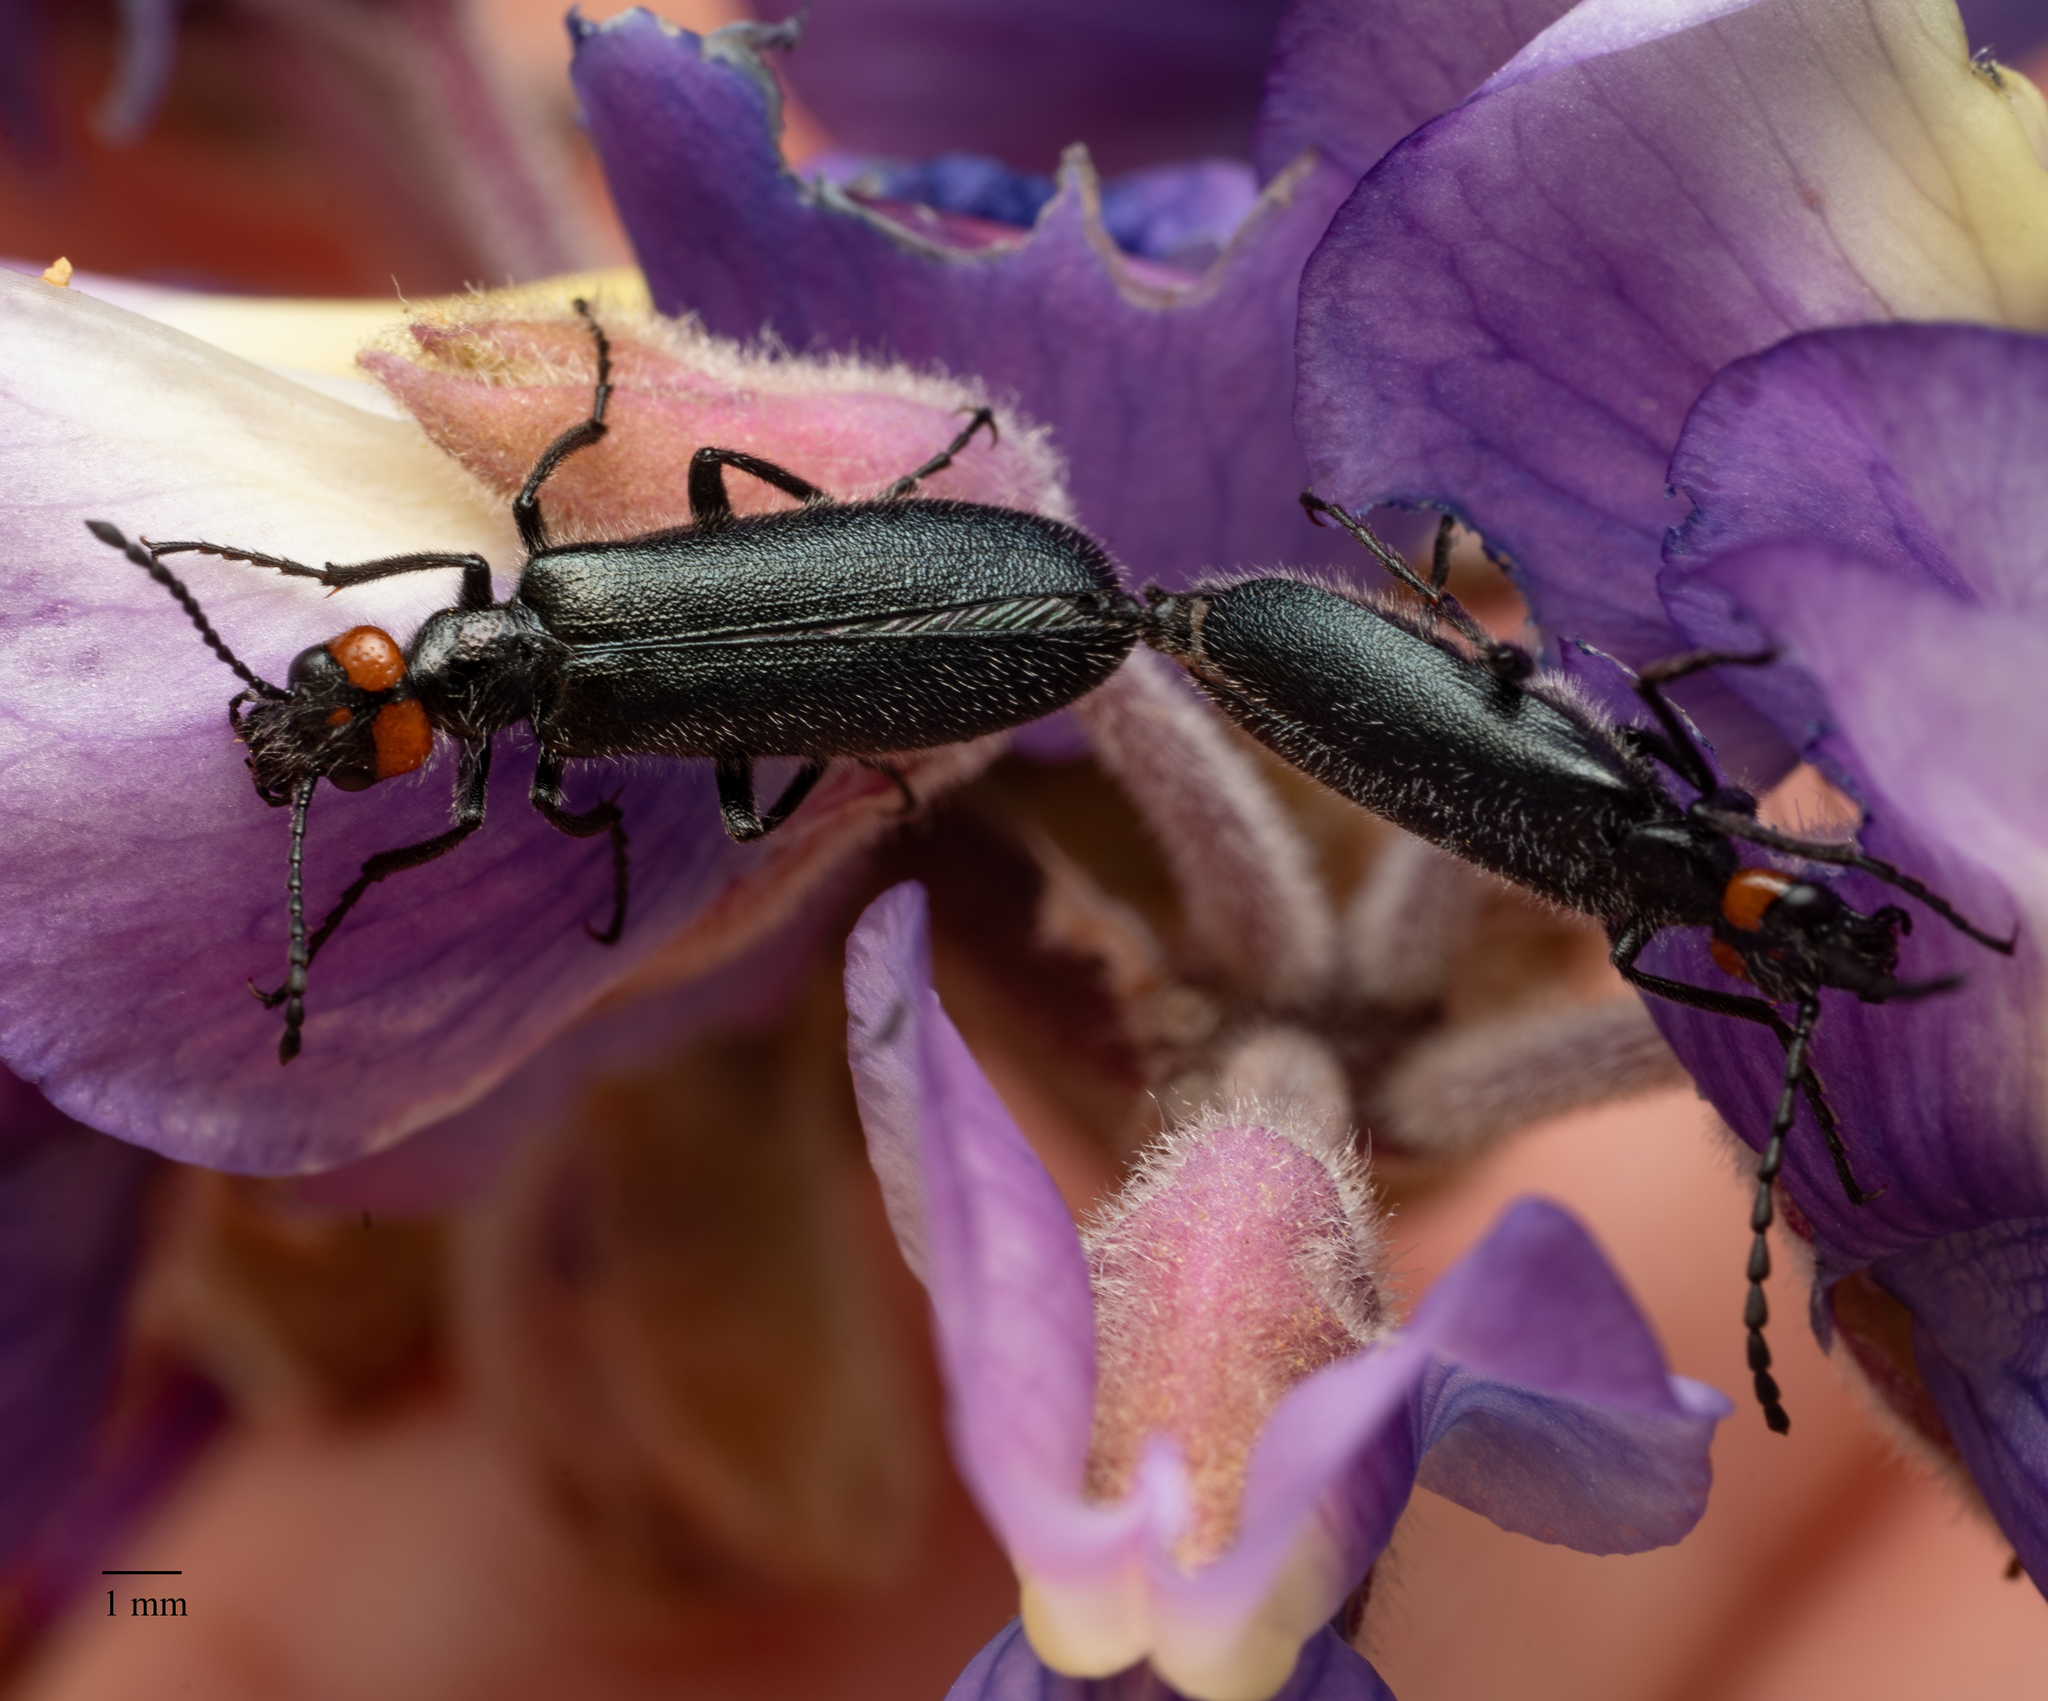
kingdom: Animalia
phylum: Arthropoda
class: Insecta
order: Coleoptera
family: Meloidae
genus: Lytta
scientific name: Lytta auriculata
